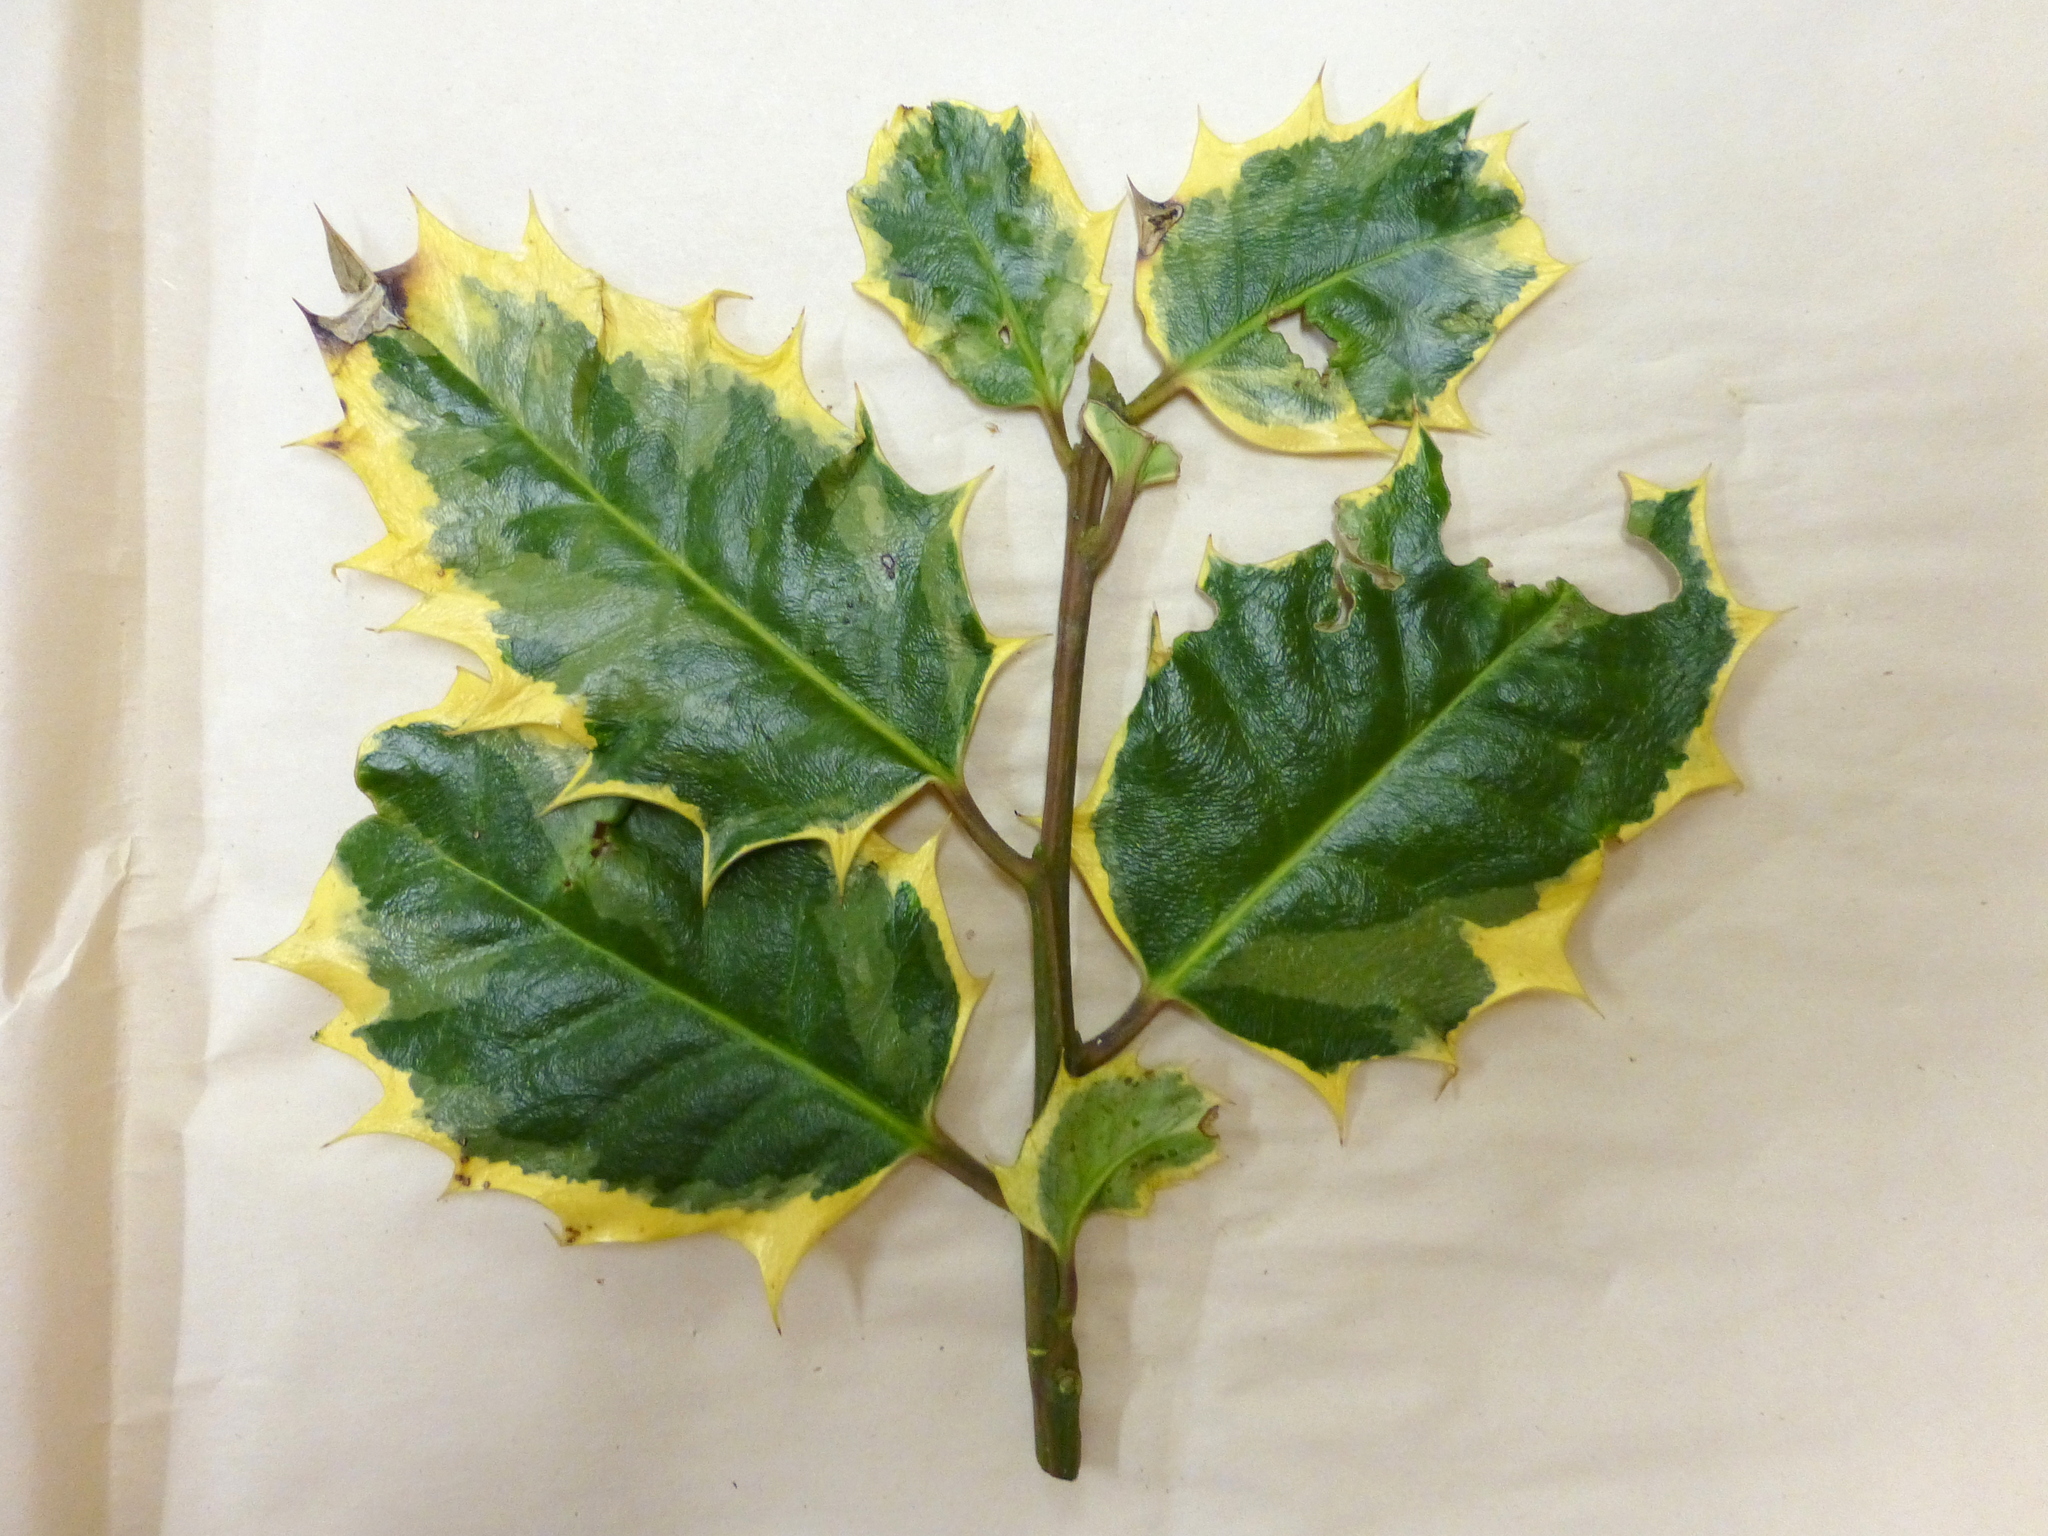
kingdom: Plantae
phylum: Tracheophyta
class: Magnoliopsida
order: Aquifoliales
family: Aquifoliaceae
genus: Ilex
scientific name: Ilex aquifolium
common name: English holly
